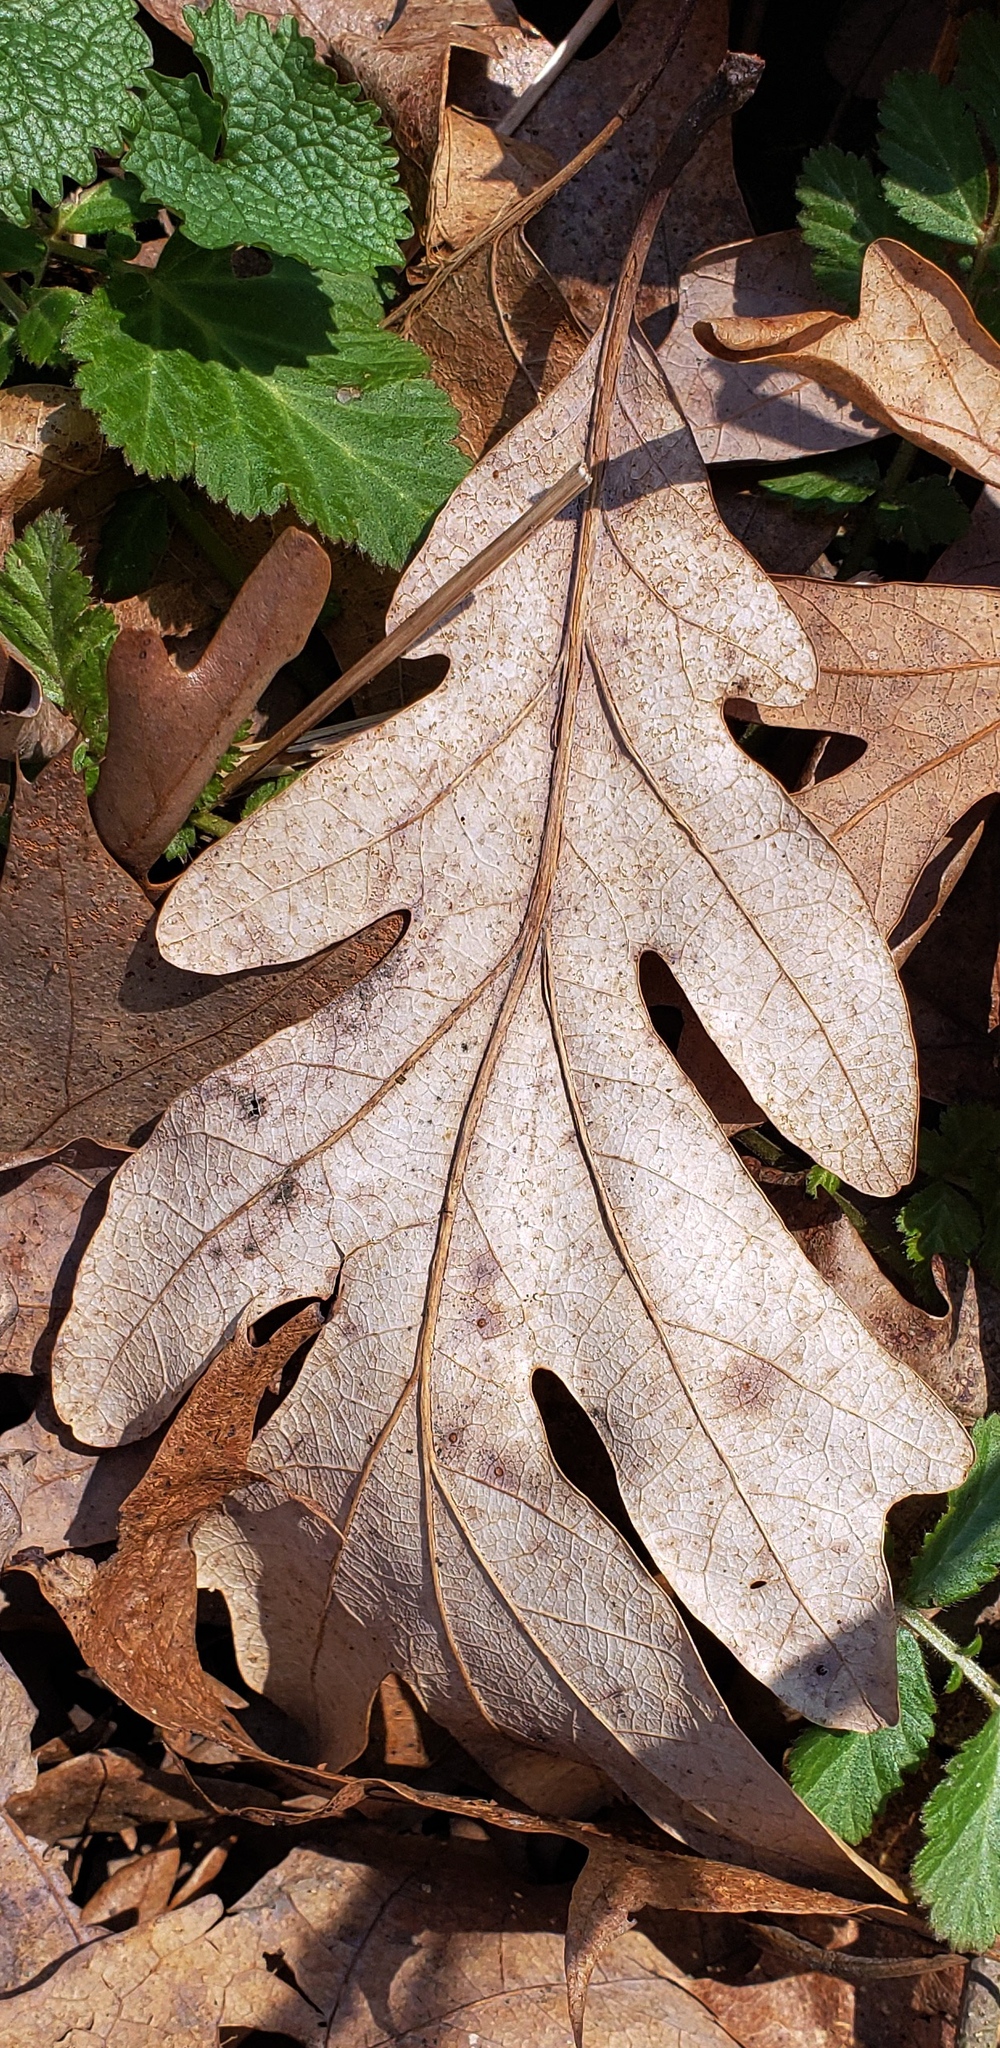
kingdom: Plantae
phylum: Tracheophyta
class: Magnoliopsida
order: Fagales
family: Fagaceae
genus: Quercus
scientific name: Quercus alba
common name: White oak
